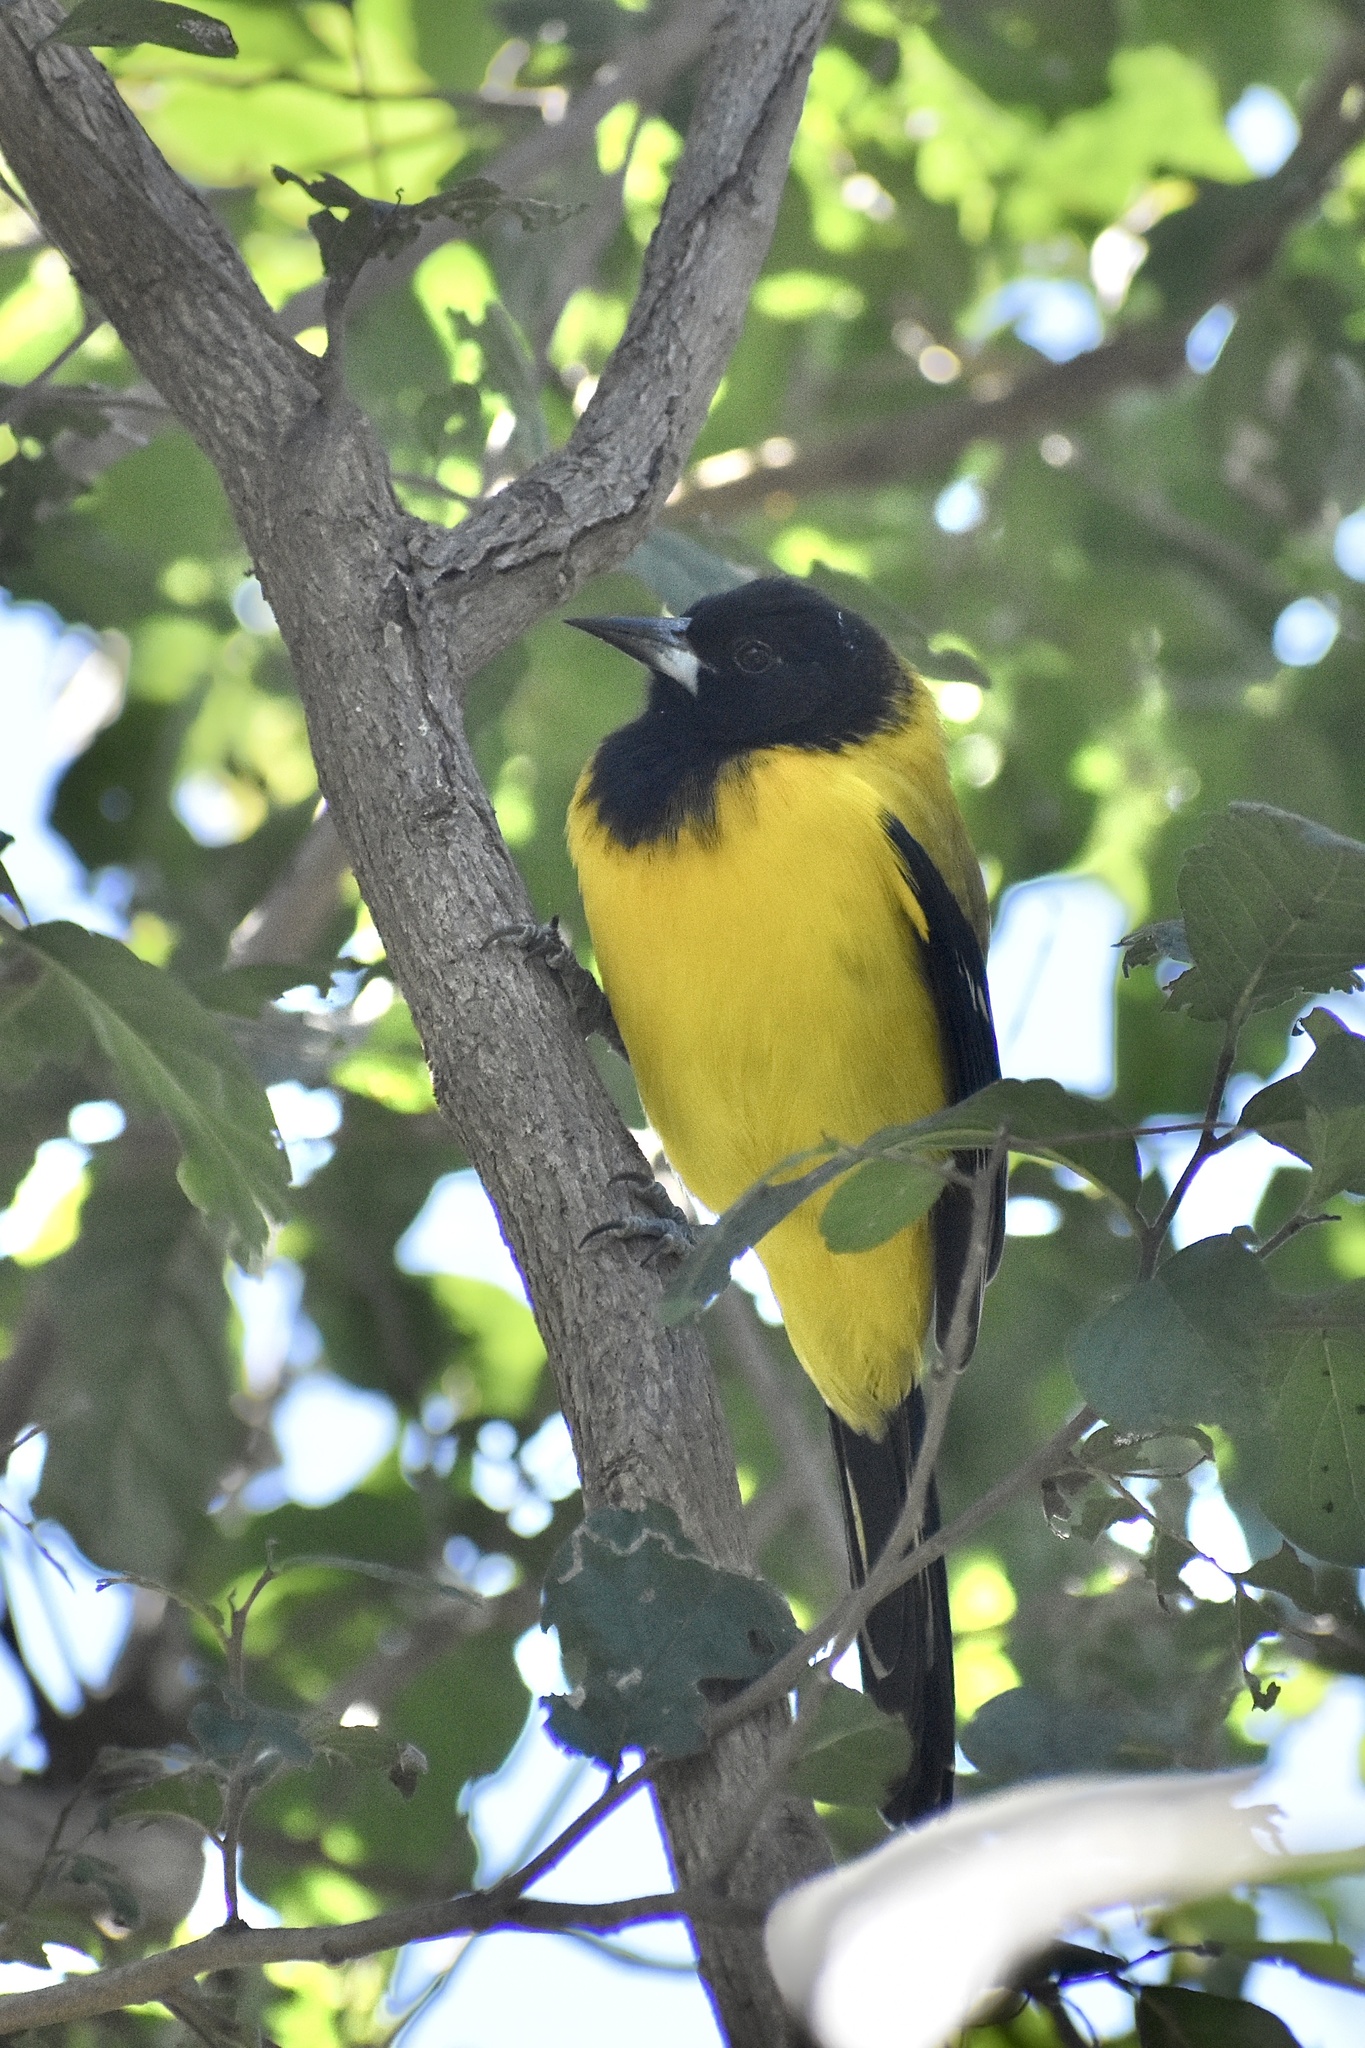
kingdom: Animalia
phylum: Chordata
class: Aves
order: Passeriformes
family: Icteridae
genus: Icterus
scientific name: Icterus graduacauda
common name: Audubon's oriole
